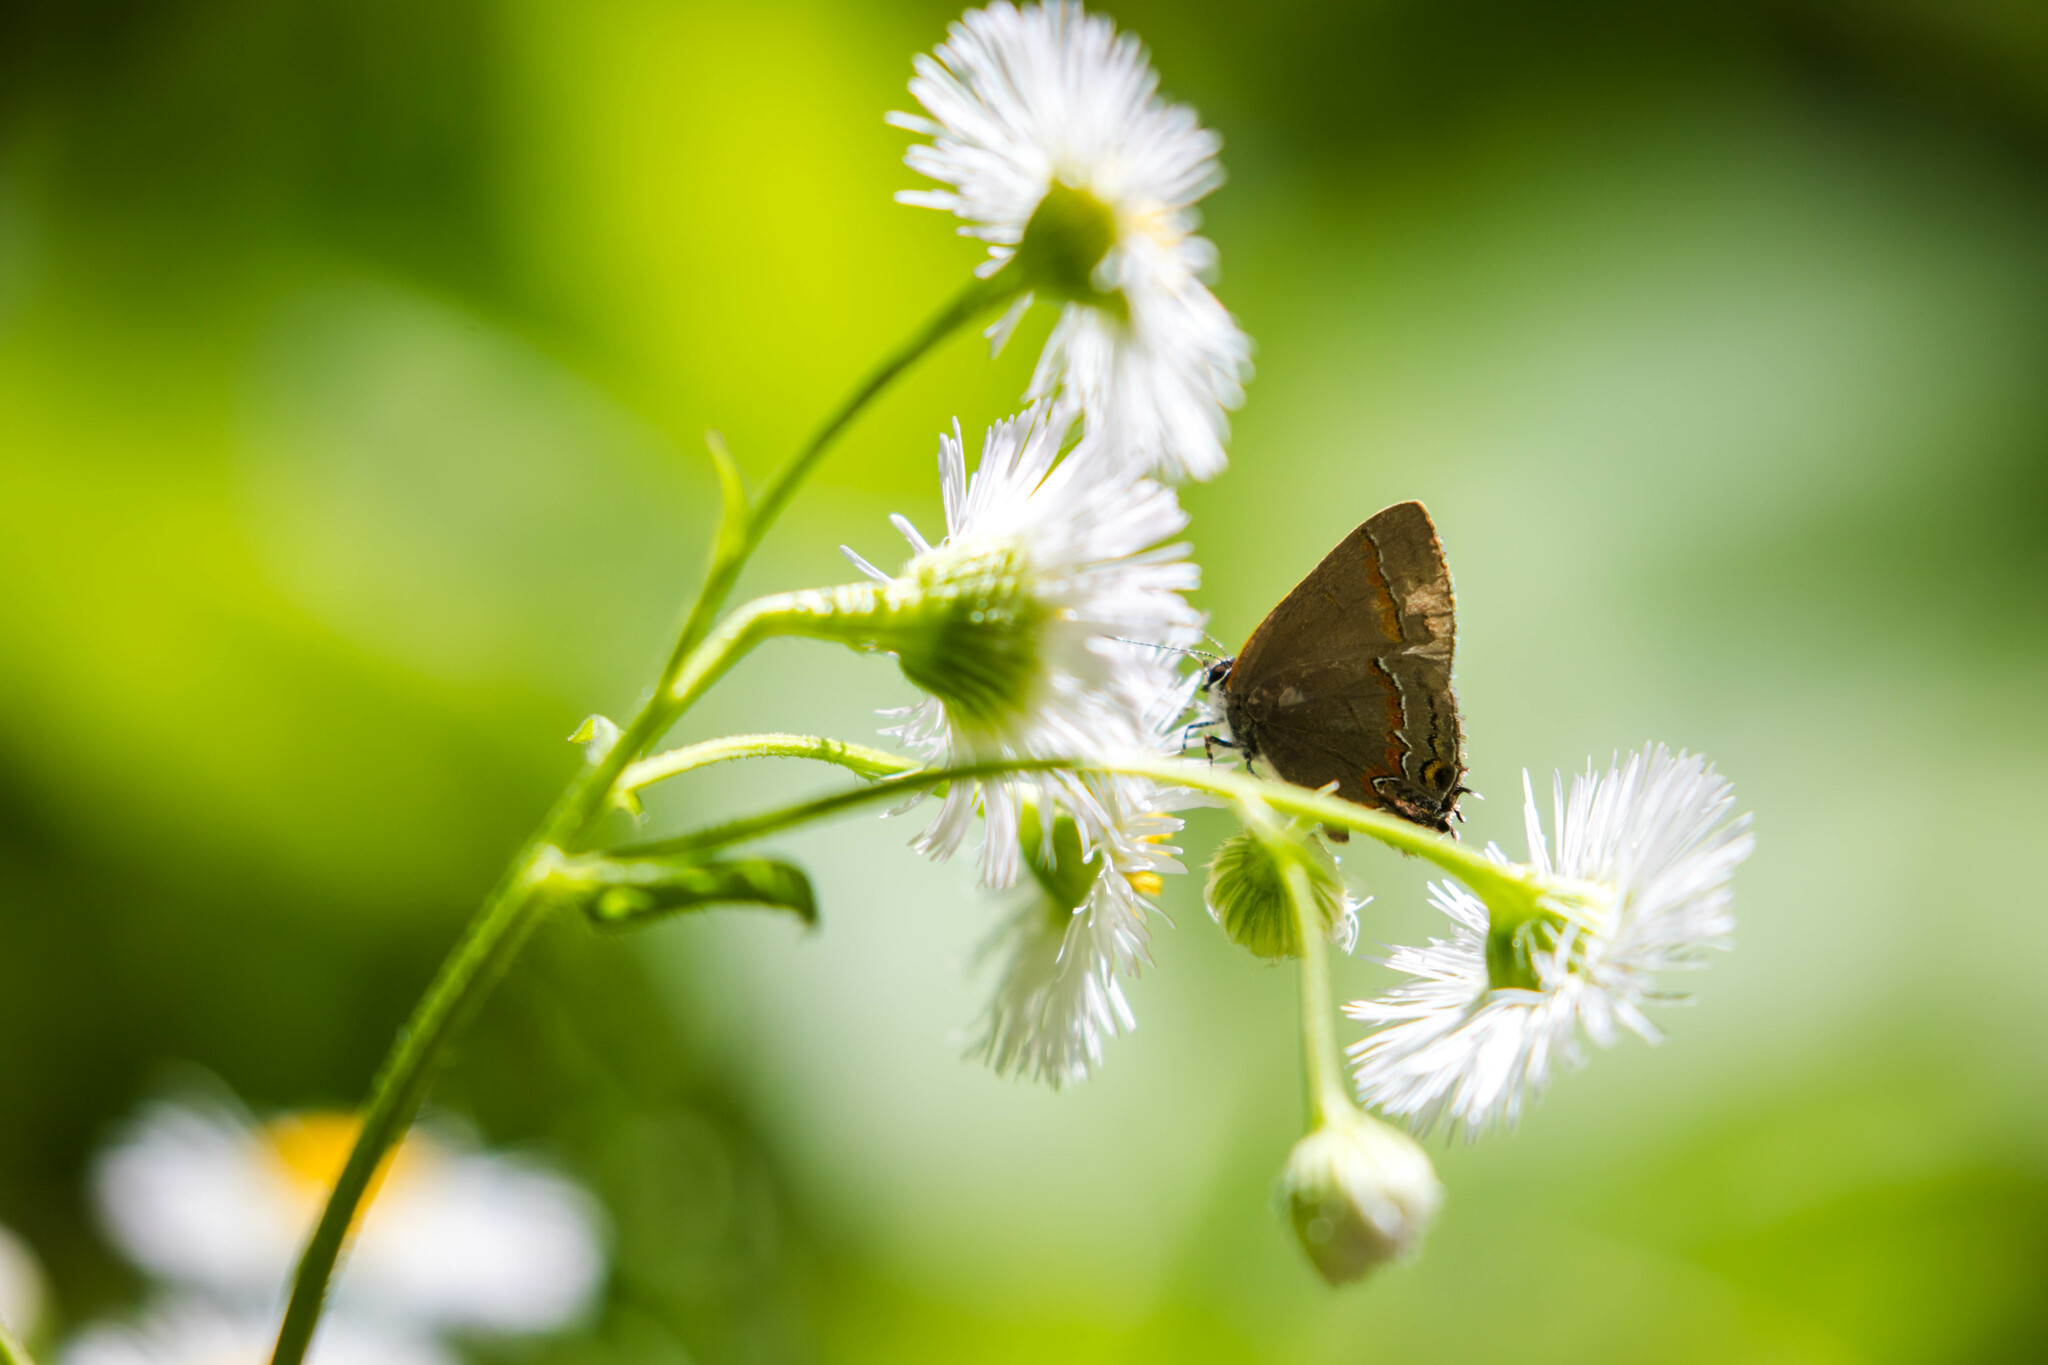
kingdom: Animalia
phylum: Arthropoda
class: Insecta
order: Lepidoptera
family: Lycaenidae
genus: Calycopis
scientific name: Calycopis cecrops
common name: Red-banded hairstreak
